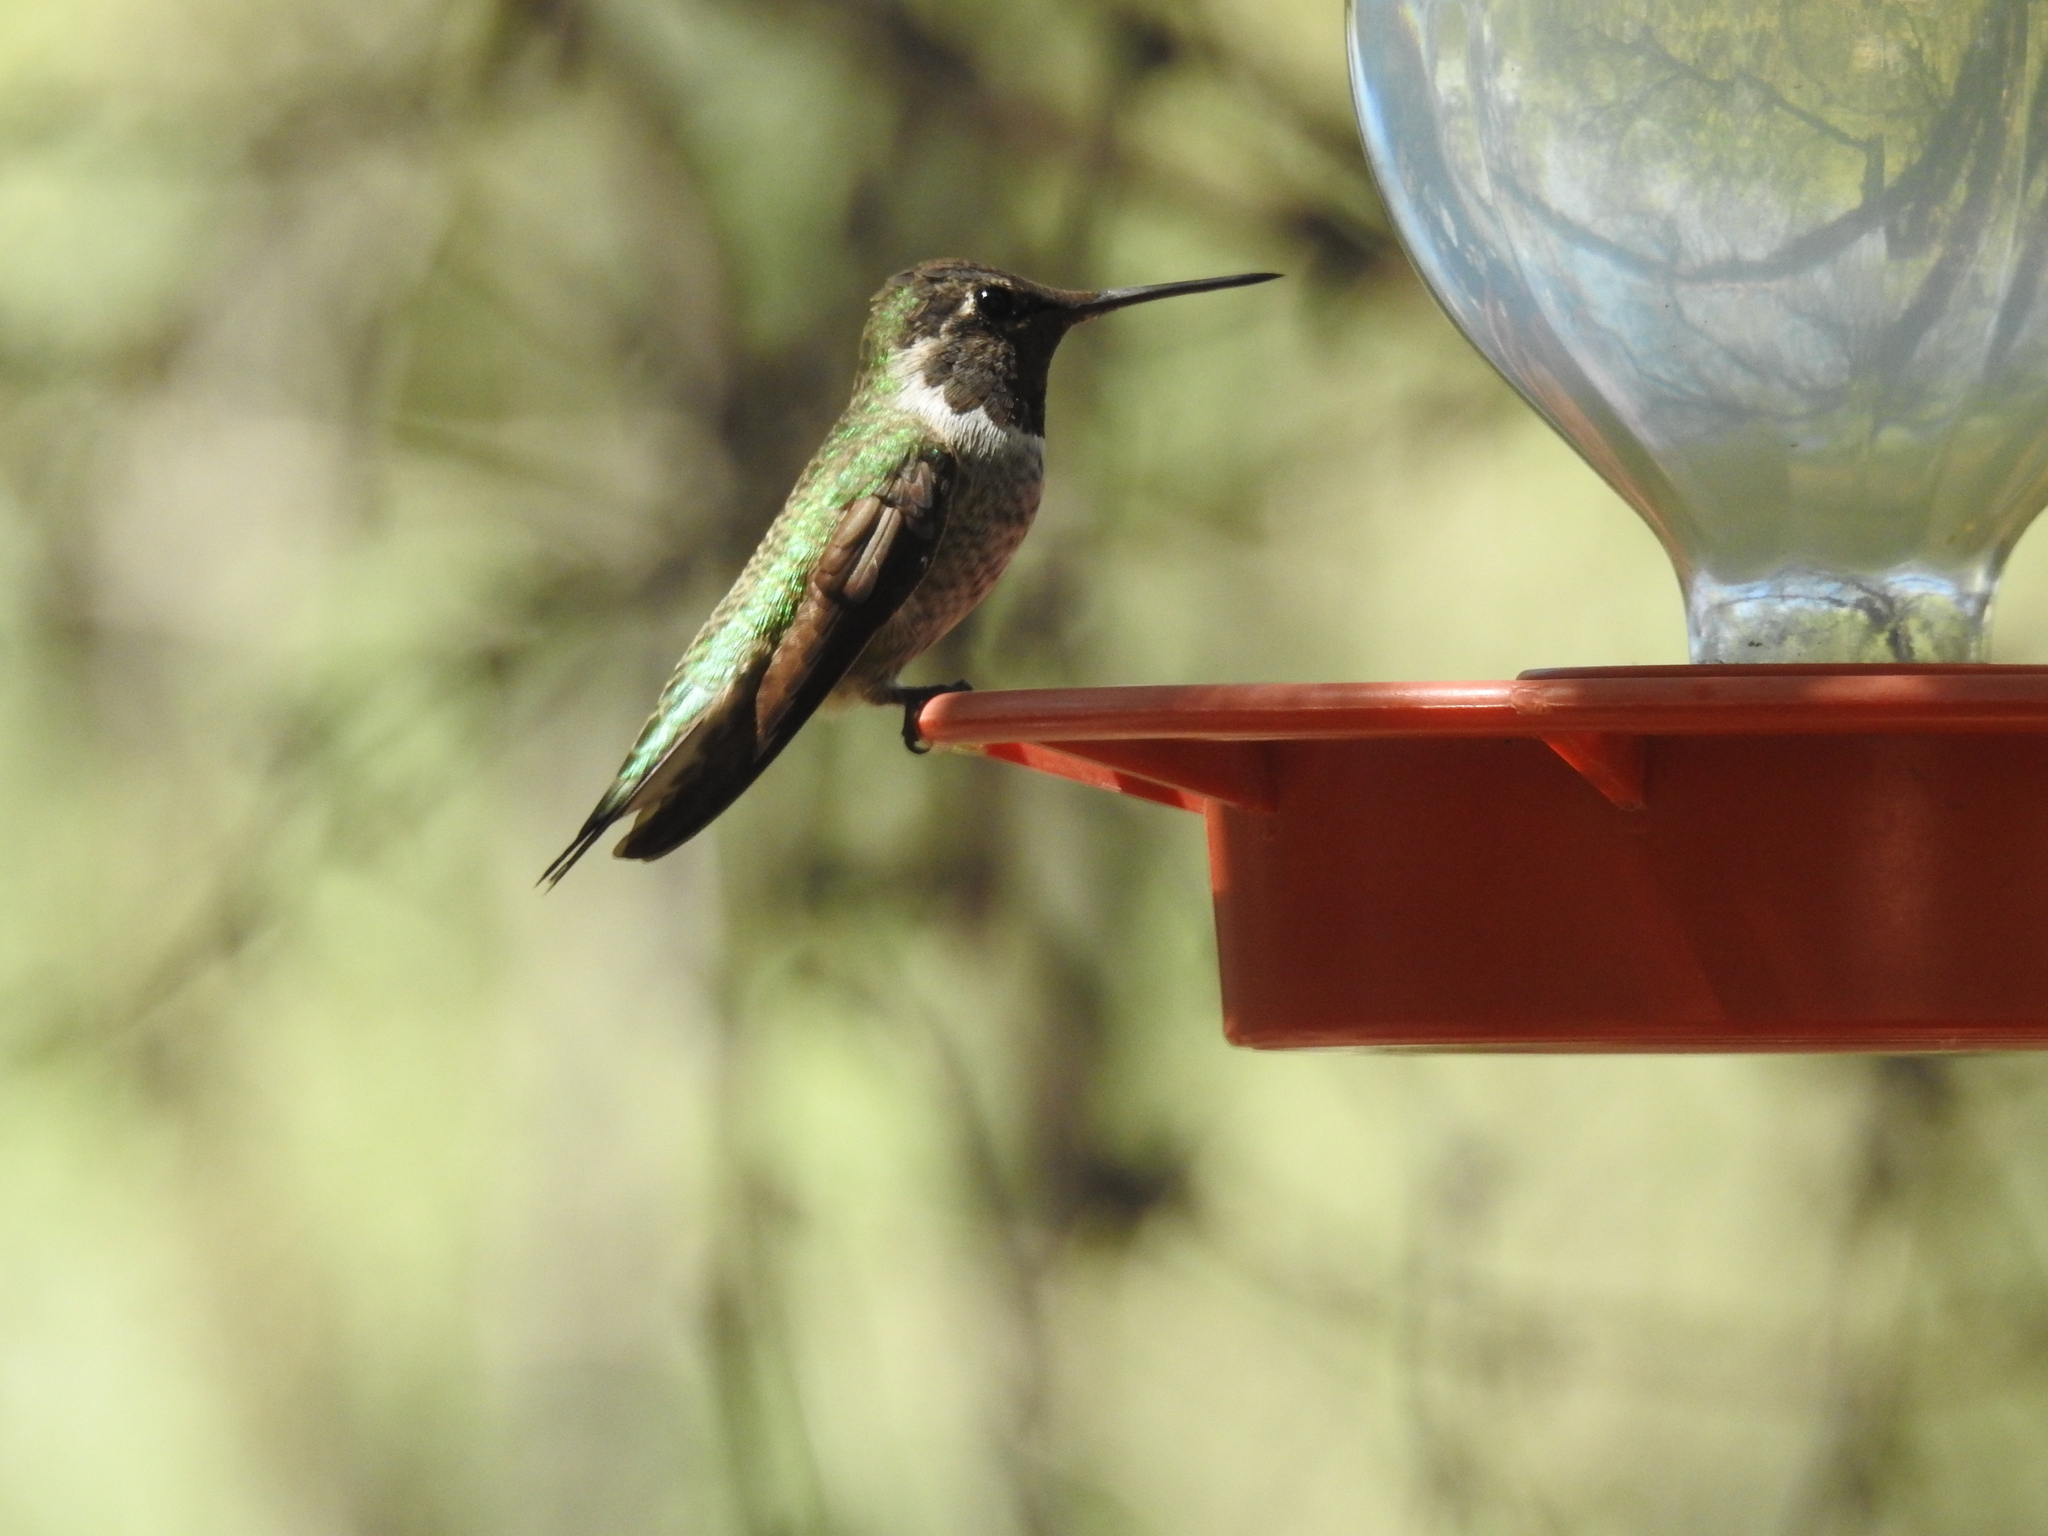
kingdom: Animalia
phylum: Chordata
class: Aves
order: Apodiformes
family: Trochilidae
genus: Calypte
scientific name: Calypte anna
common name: Anna's hummingbird
